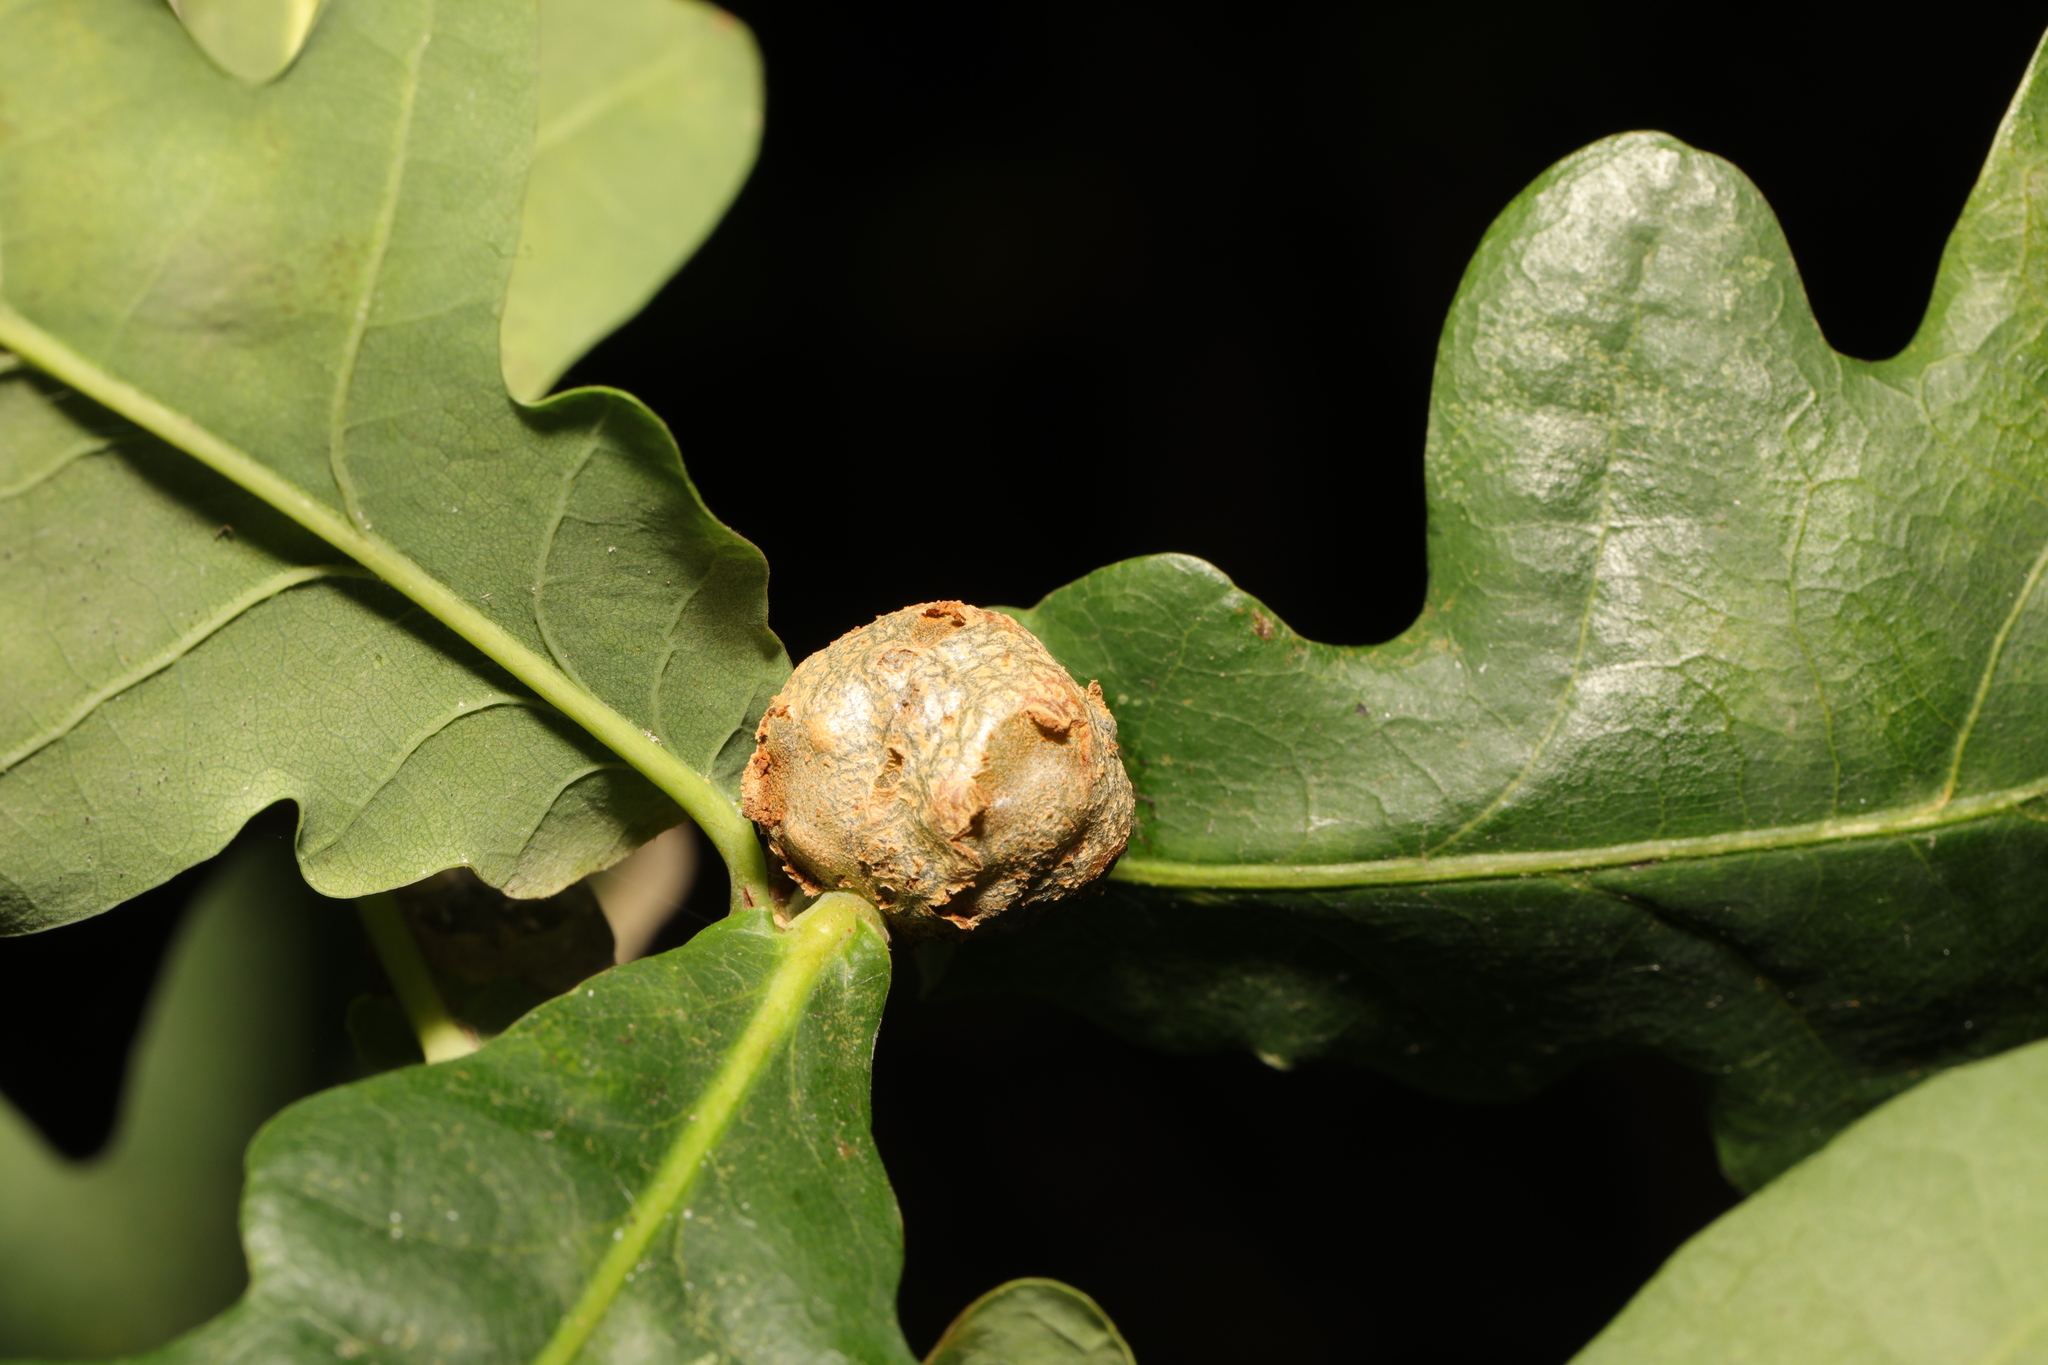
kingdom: Animalia
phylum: Arthropoda
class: Insecta
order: Hymenoptera
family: Cynipidae
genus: Andricus
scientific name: Andricus lignicolus
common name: Cola-nut gall
